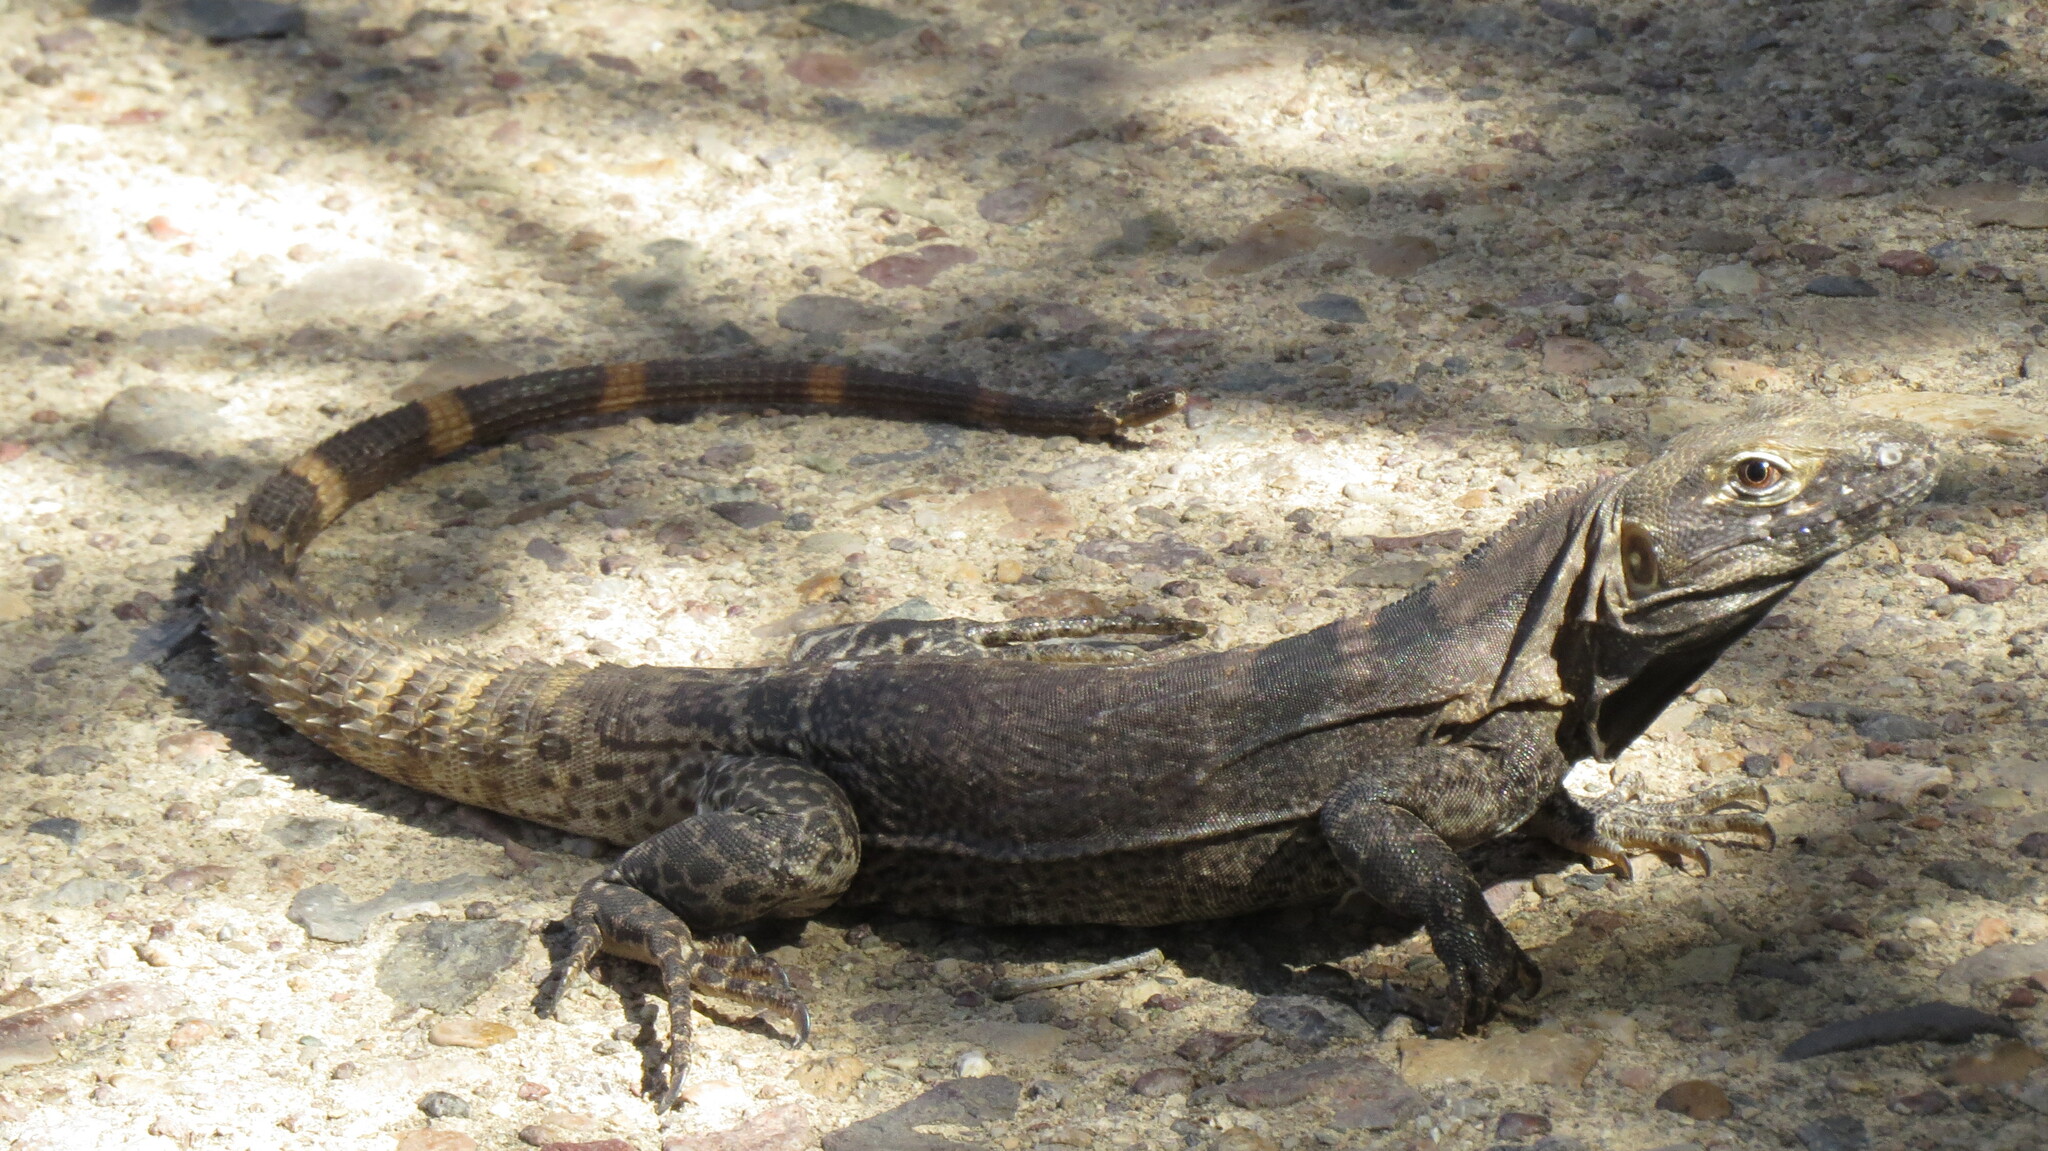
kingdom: Animalia
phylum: Chordata
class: Squamata
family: Iguanidae
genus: Ctenosaura
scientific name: Ctenosaura
